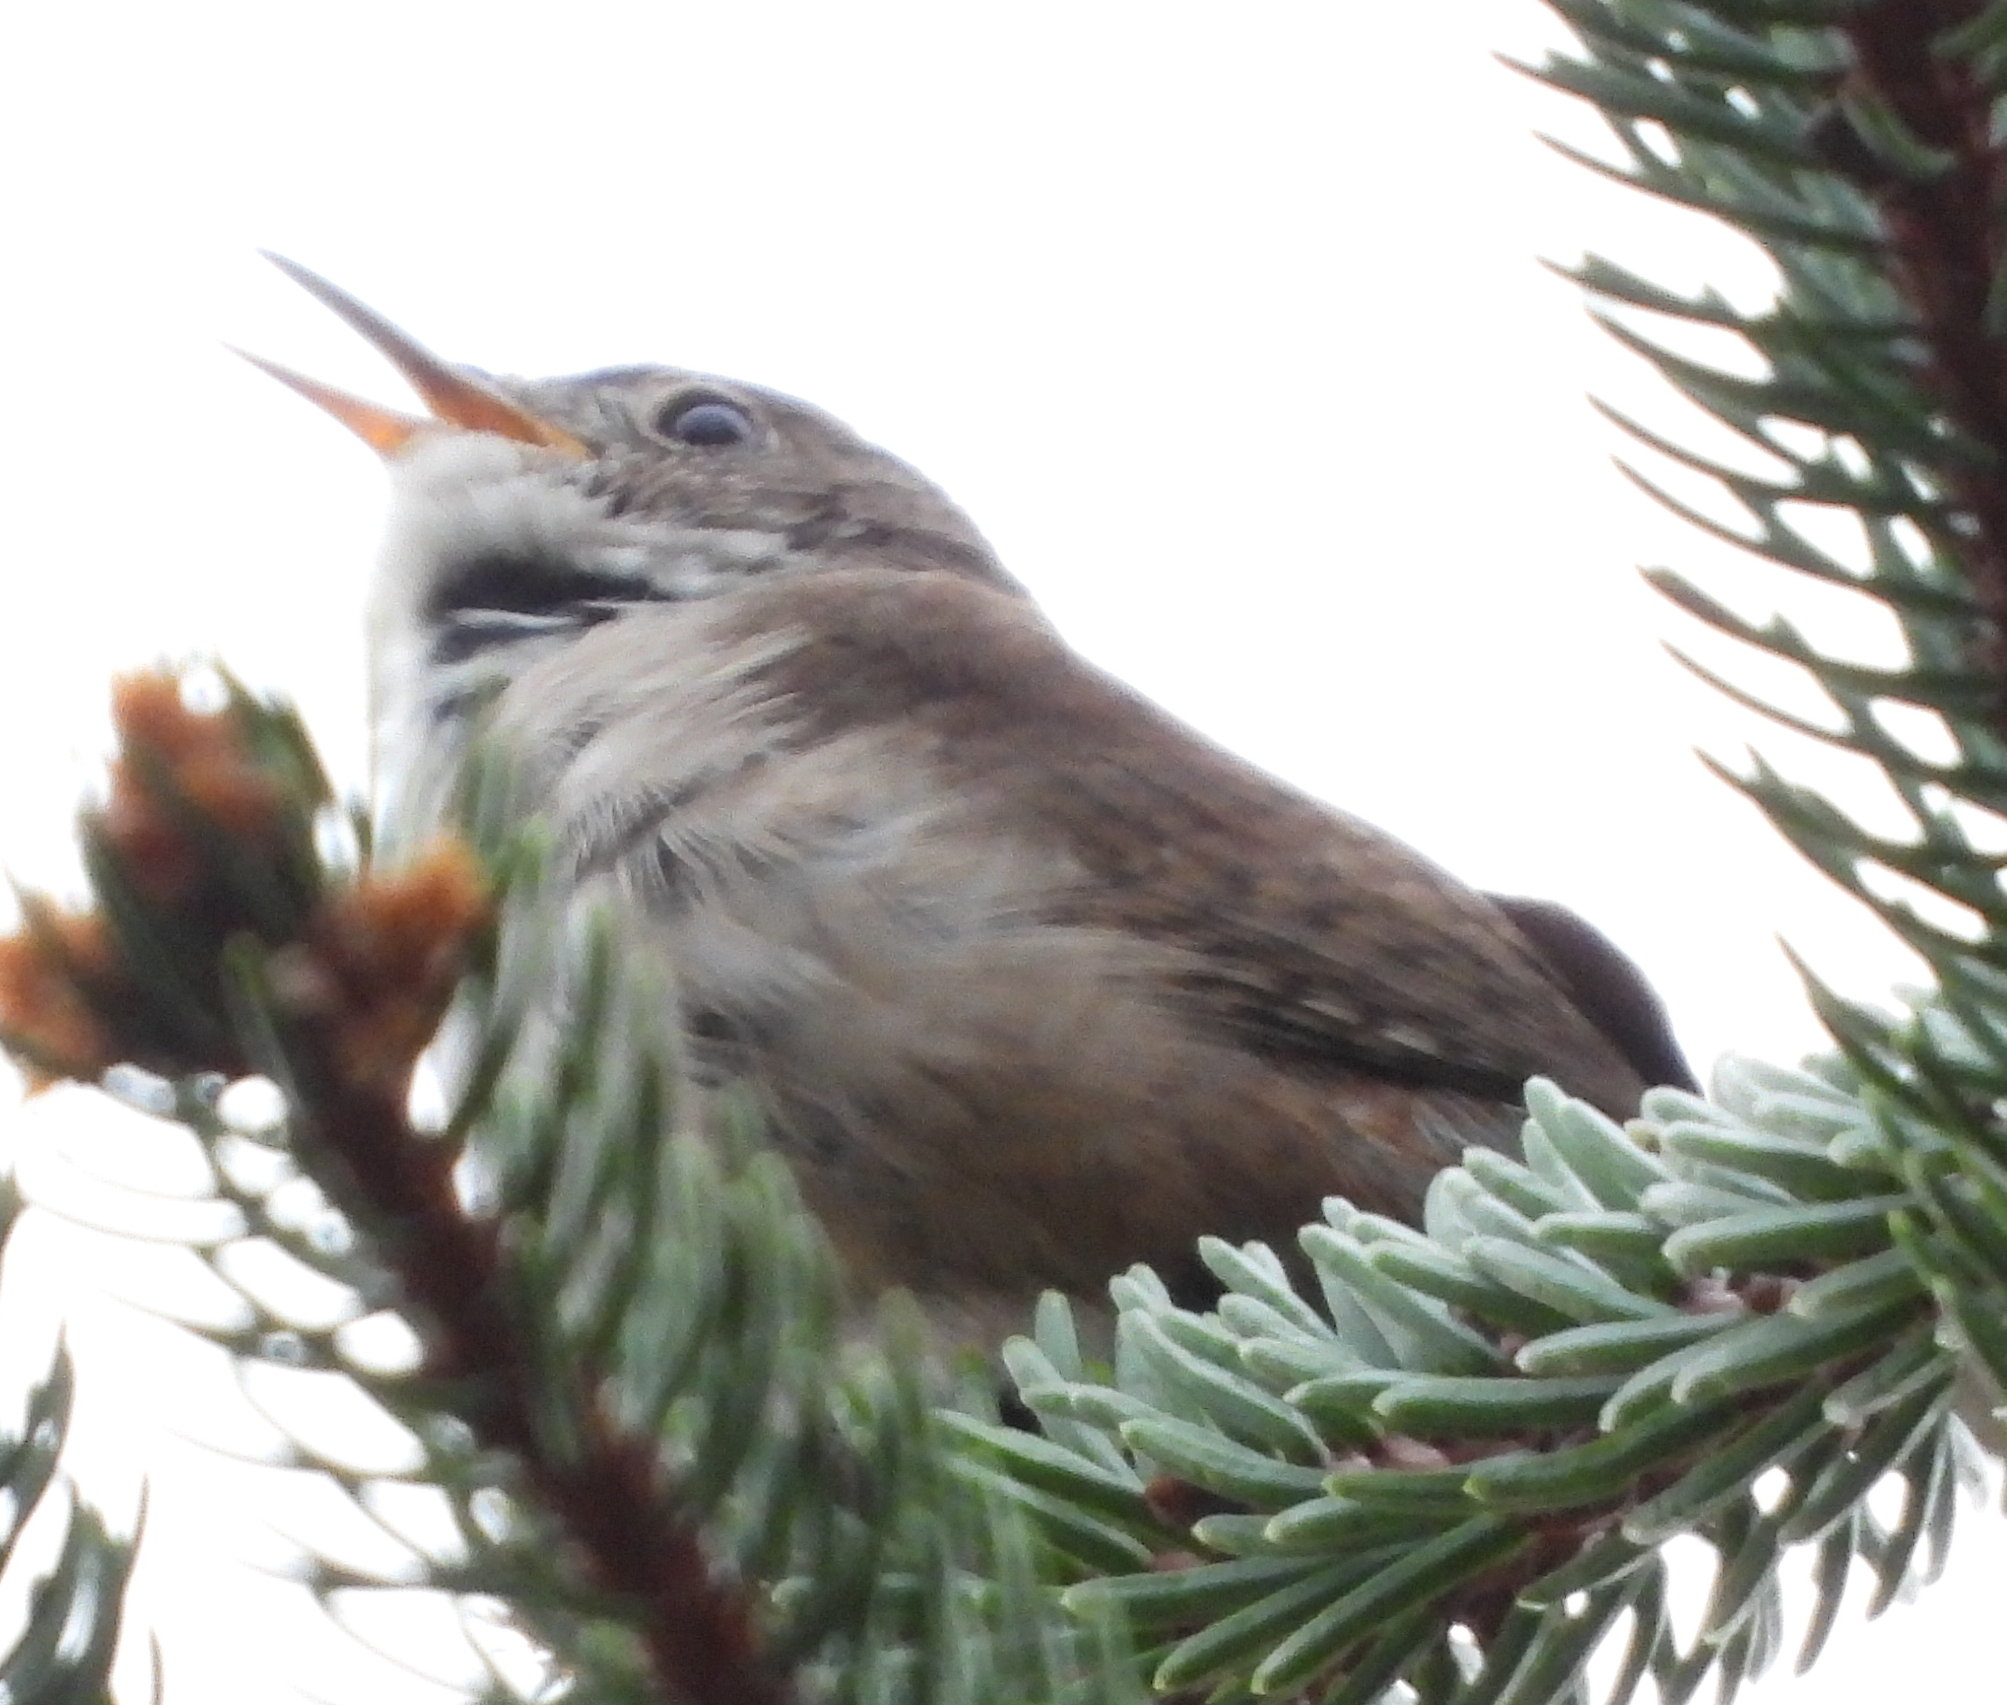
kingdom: Animalia
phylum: Chordata
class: Aves
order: Passeriformes
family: Troglodytidae
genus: Troglodytes
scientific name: Troglodytes aedon
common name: House wren
